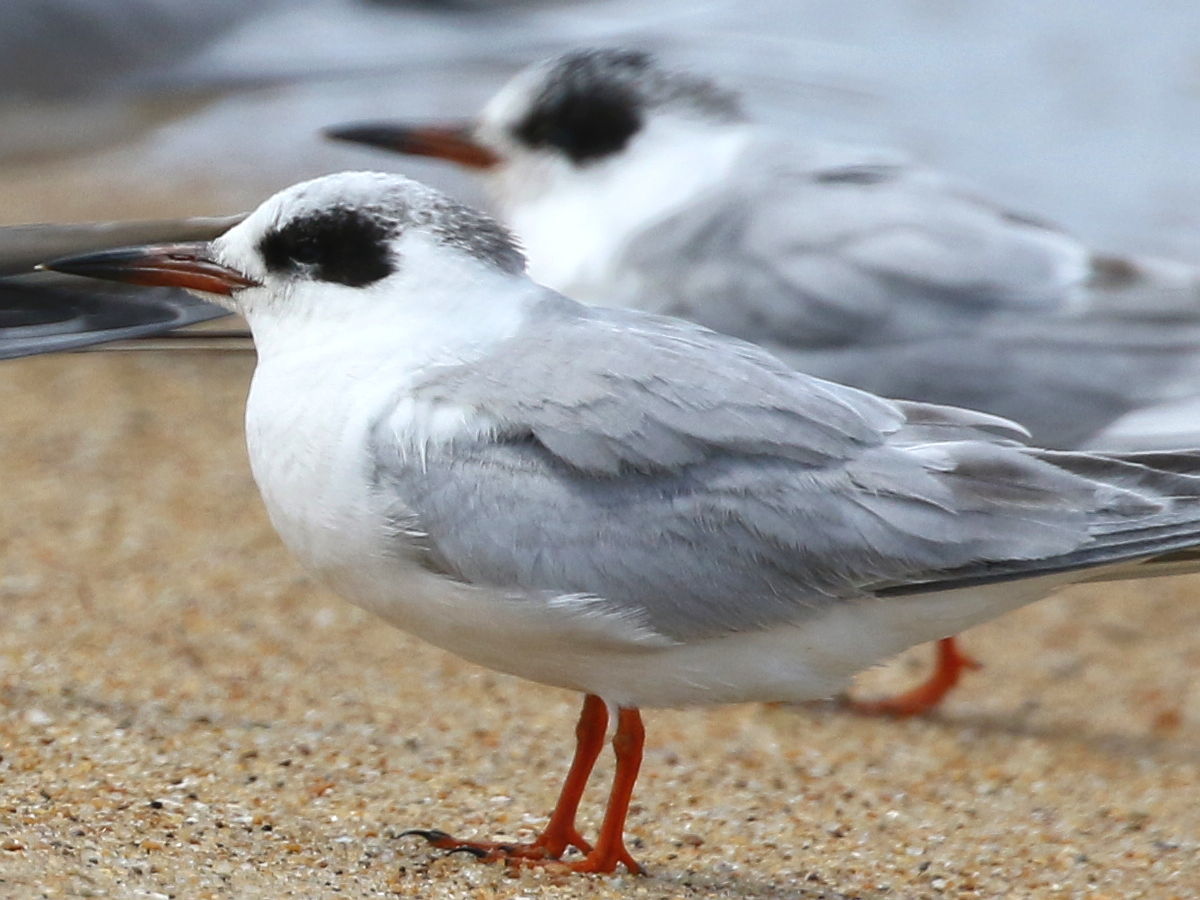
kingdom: Animalia
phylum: Chordata
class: Aves
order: Charadriiformes
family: Laridae
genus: Sterna
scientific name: Sterna forsteri
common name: Forster's tern
